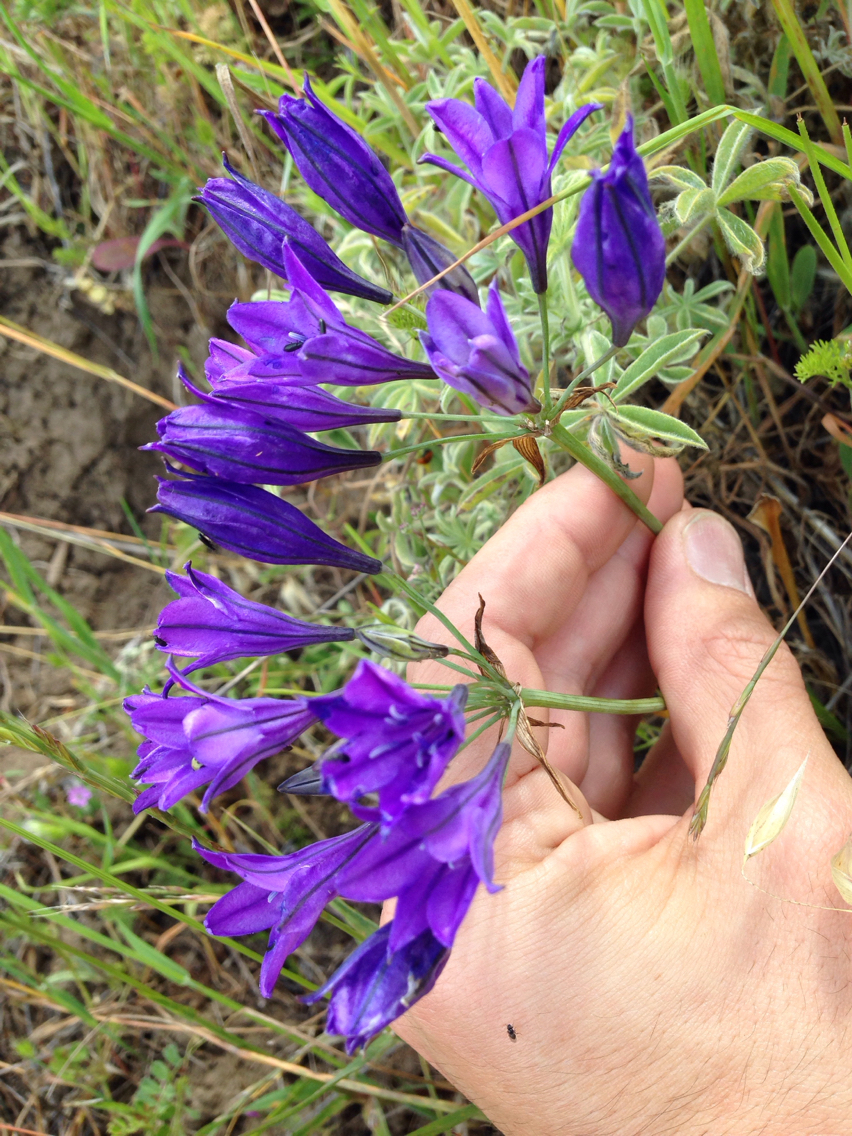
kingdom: Plantae
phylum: Tracheophyta
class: Liliopsida
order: Asparagales
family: Asparagaceae
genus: Triteleia
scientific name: Triteleia laxa
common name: Triplet-lily
